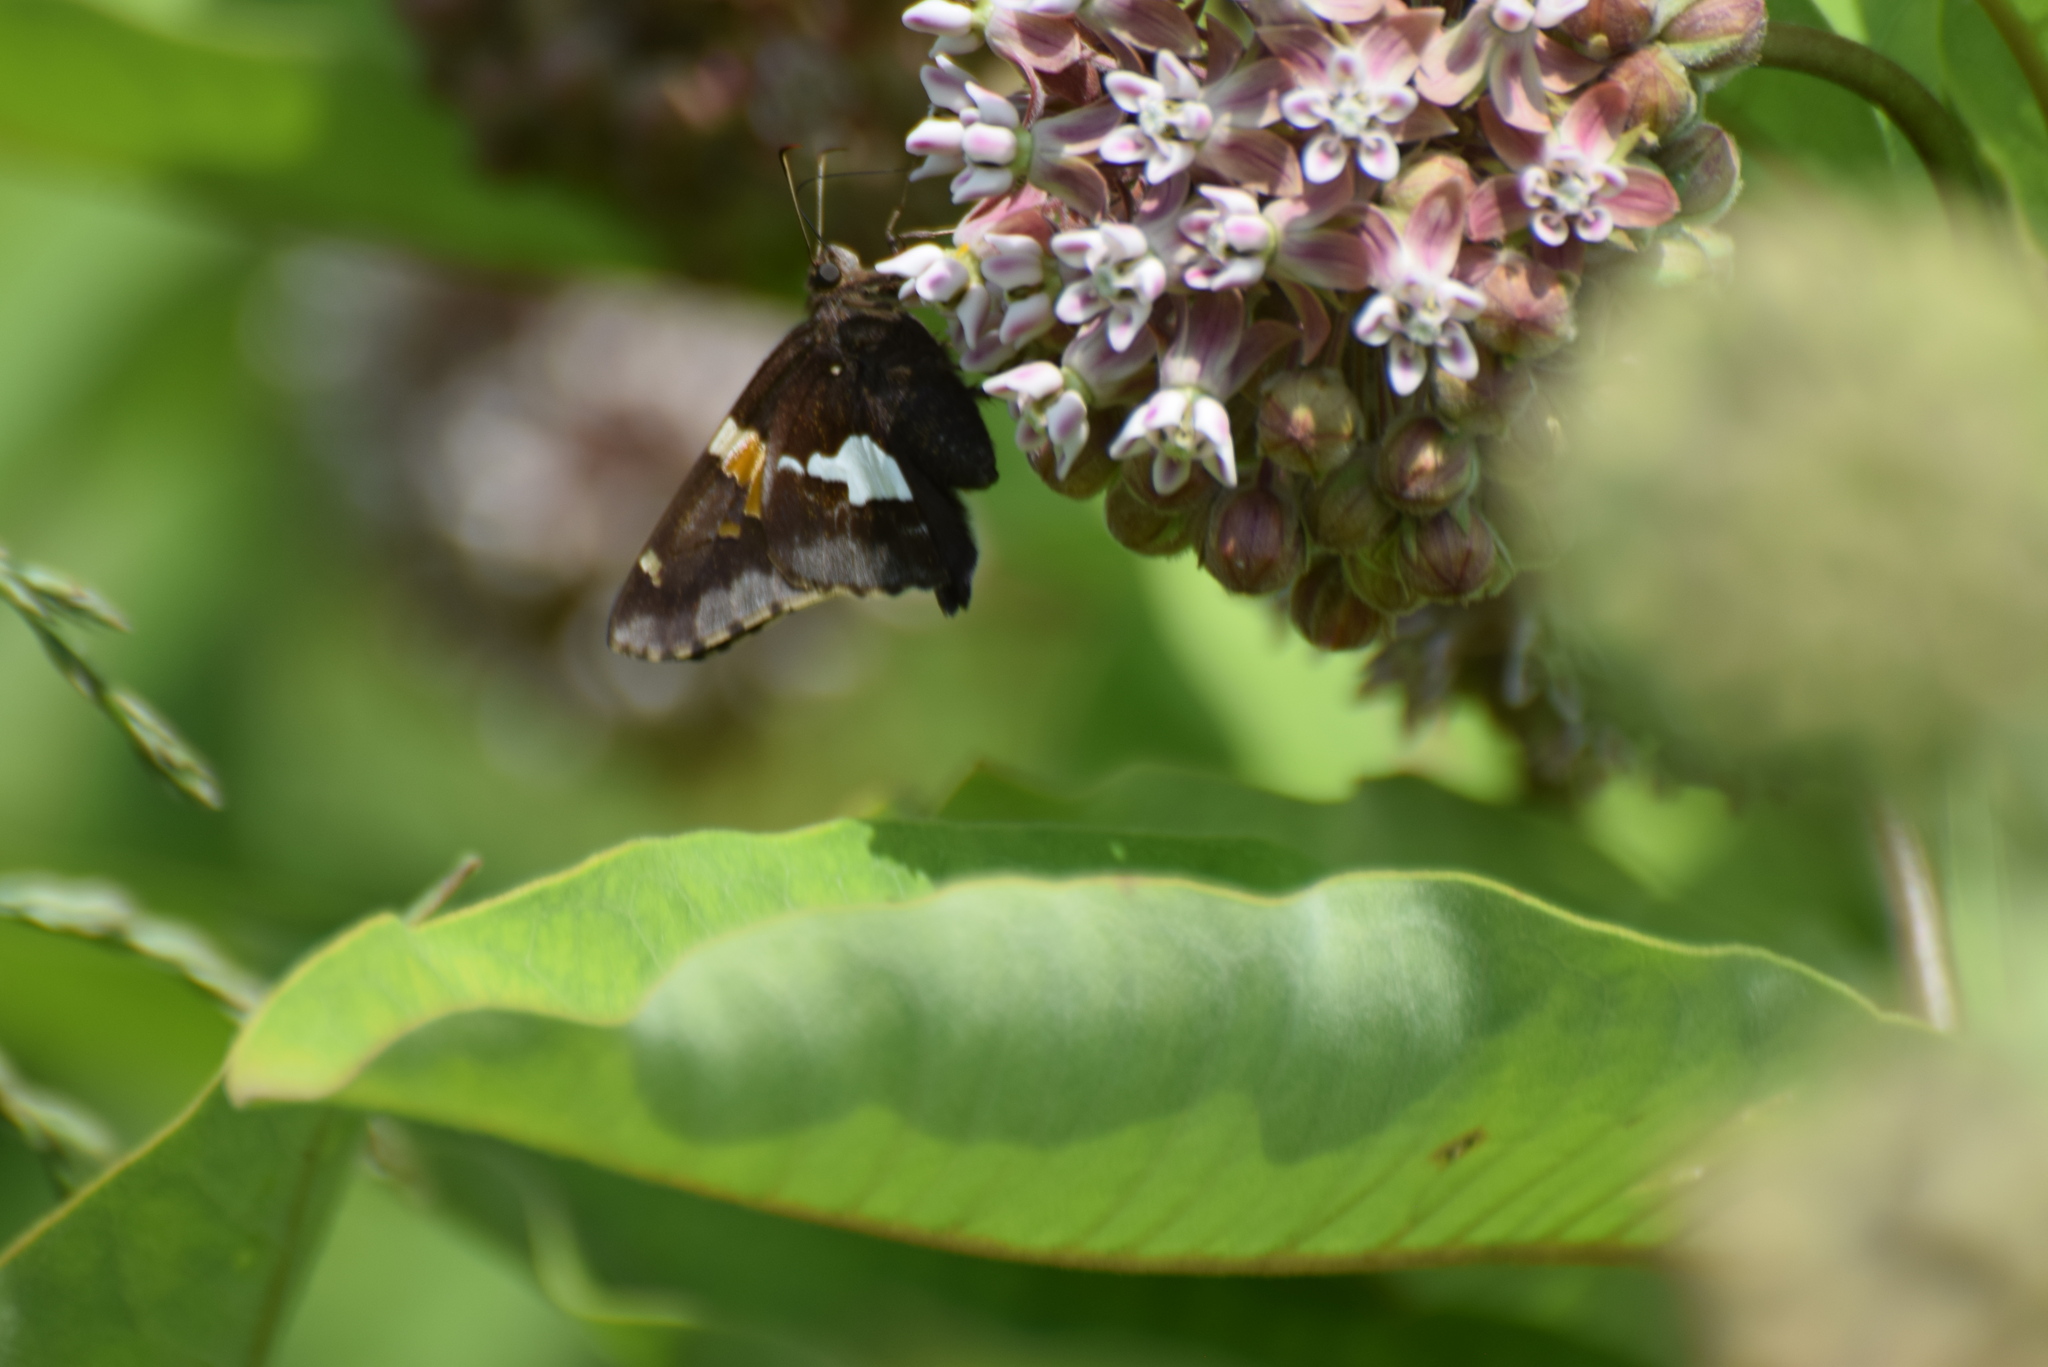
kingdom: Animalia
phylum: Arthropoda
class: Insecta
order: Lepidoptera
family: Hesperiidae
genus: Epargyreus
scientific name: Epargyreus clarus
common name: Silver-spotted skipper
